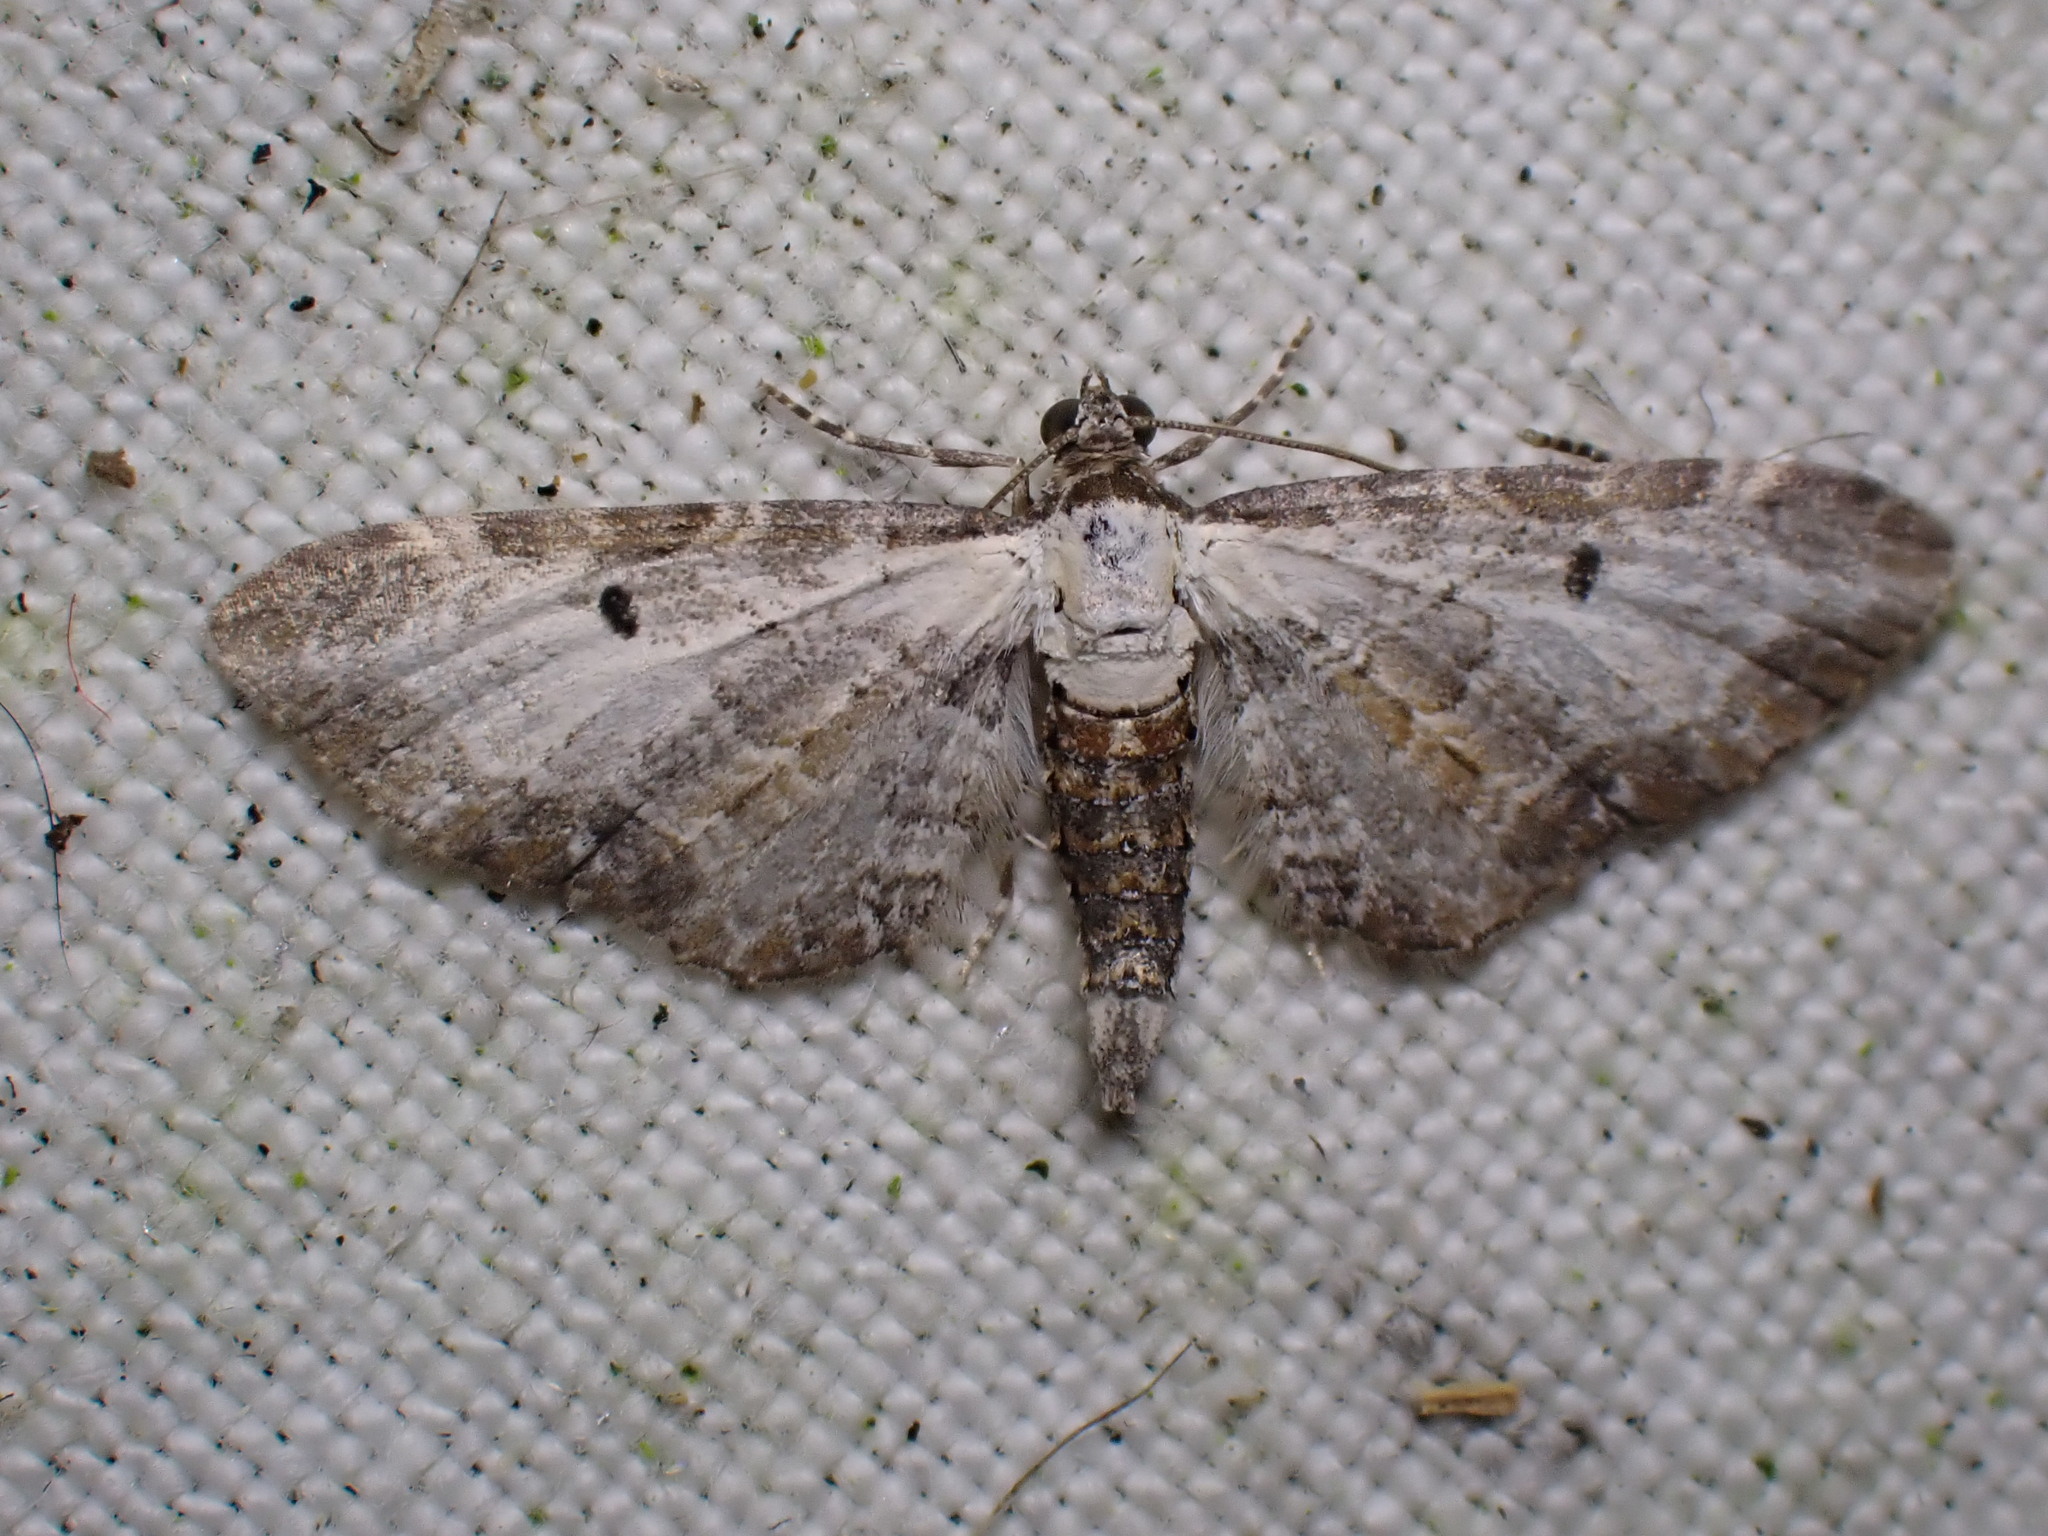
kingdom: Animalia
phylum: Arthropoda
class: Insecta
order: Lepidoptera
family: Geometridae
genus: Eupithecia
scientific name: Eupithecia succenturiata
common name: Bordered pug
